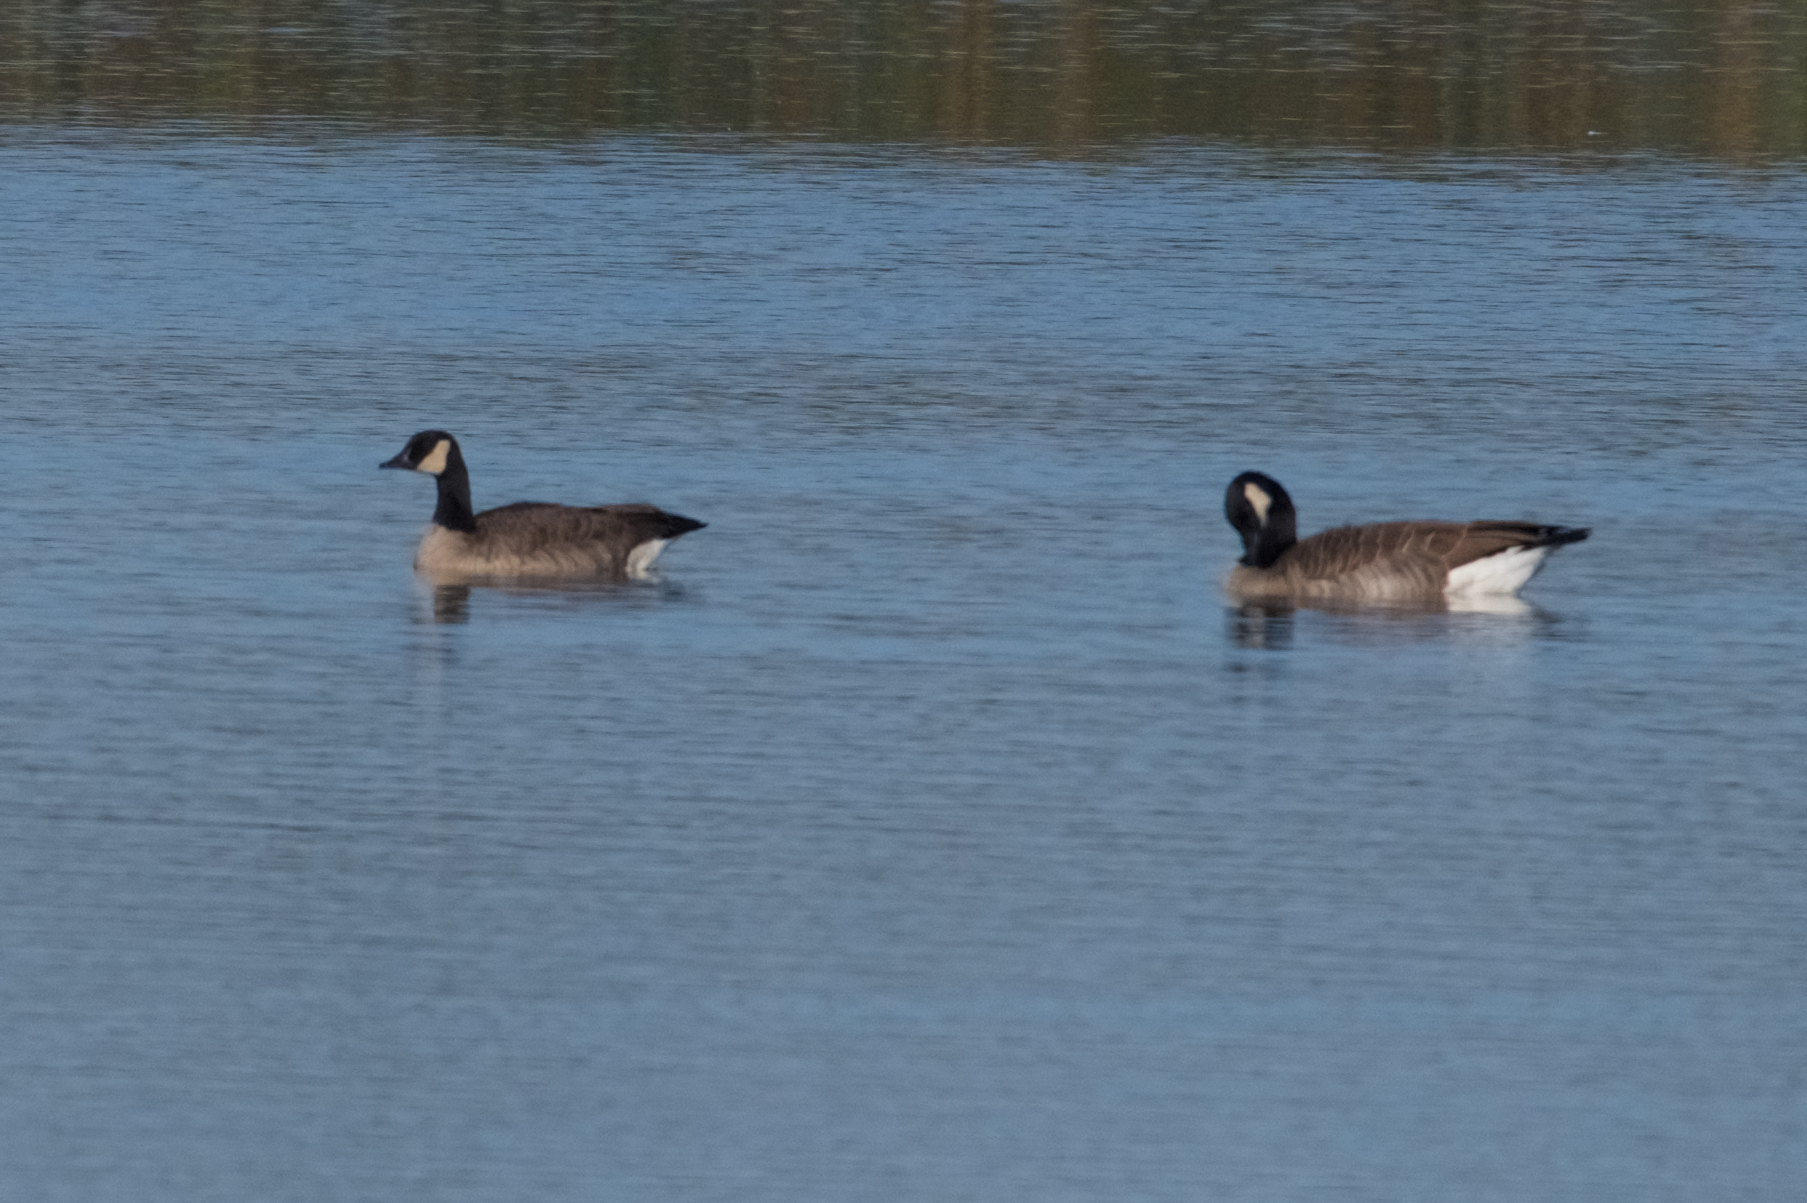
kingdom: Animalia
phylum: Chordata
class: Aves
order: Anseriformes
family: Anatidae
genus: Branta
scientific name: Branta canadensis
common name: Canada goose
